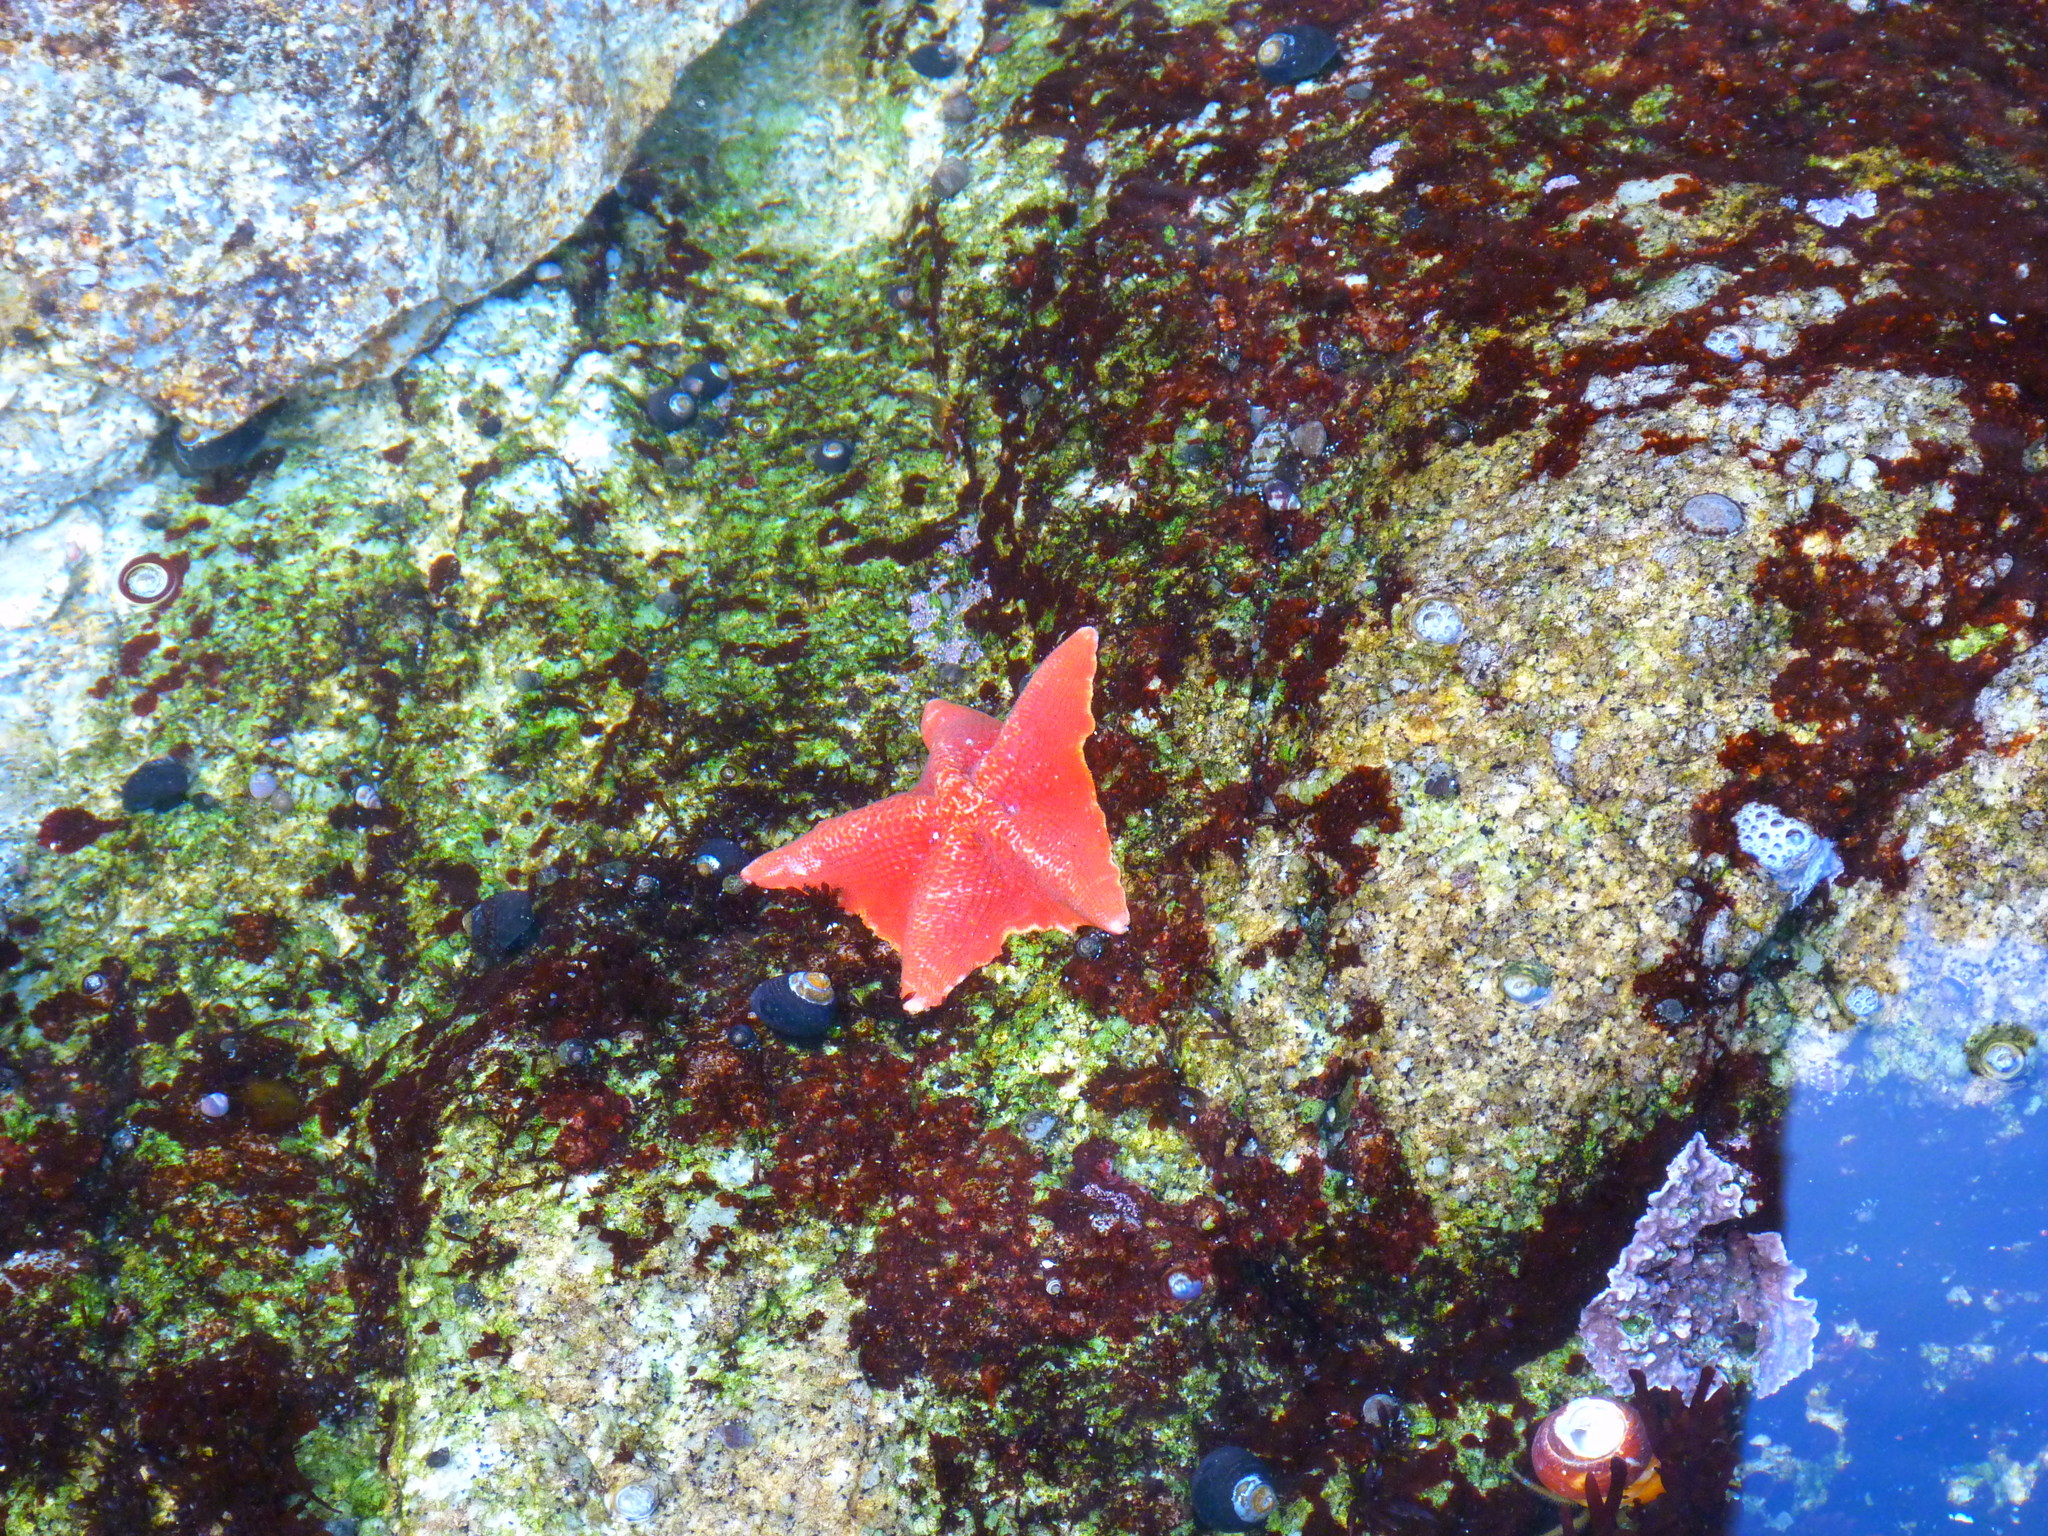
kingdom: Animalia
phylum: Echinodermata
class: Asteroidea
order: Valvatida
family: Asterinidae
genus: Patiria
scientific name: Patiria miniata
